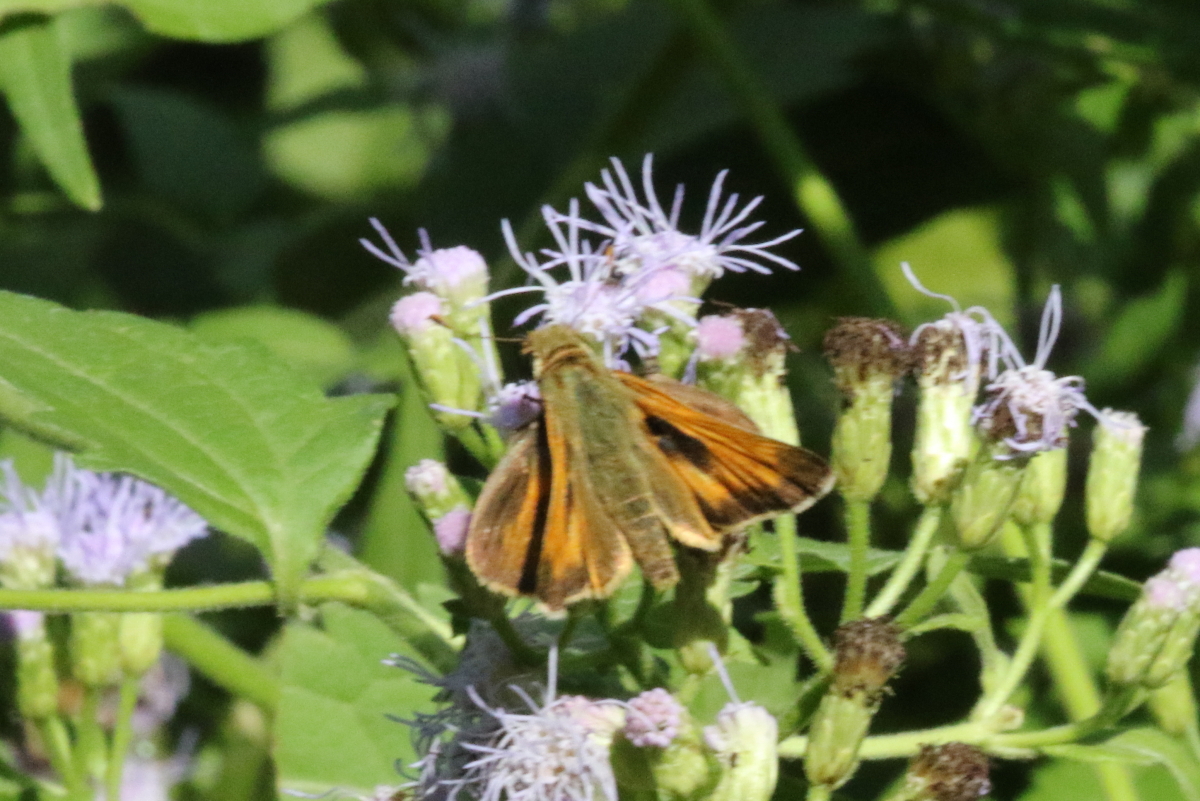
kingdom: Animalia
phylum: Arthropoda
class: Insecta
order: Lepidoptera
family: Hesperiidae
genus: Atalopedes
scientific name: Atalopedes
